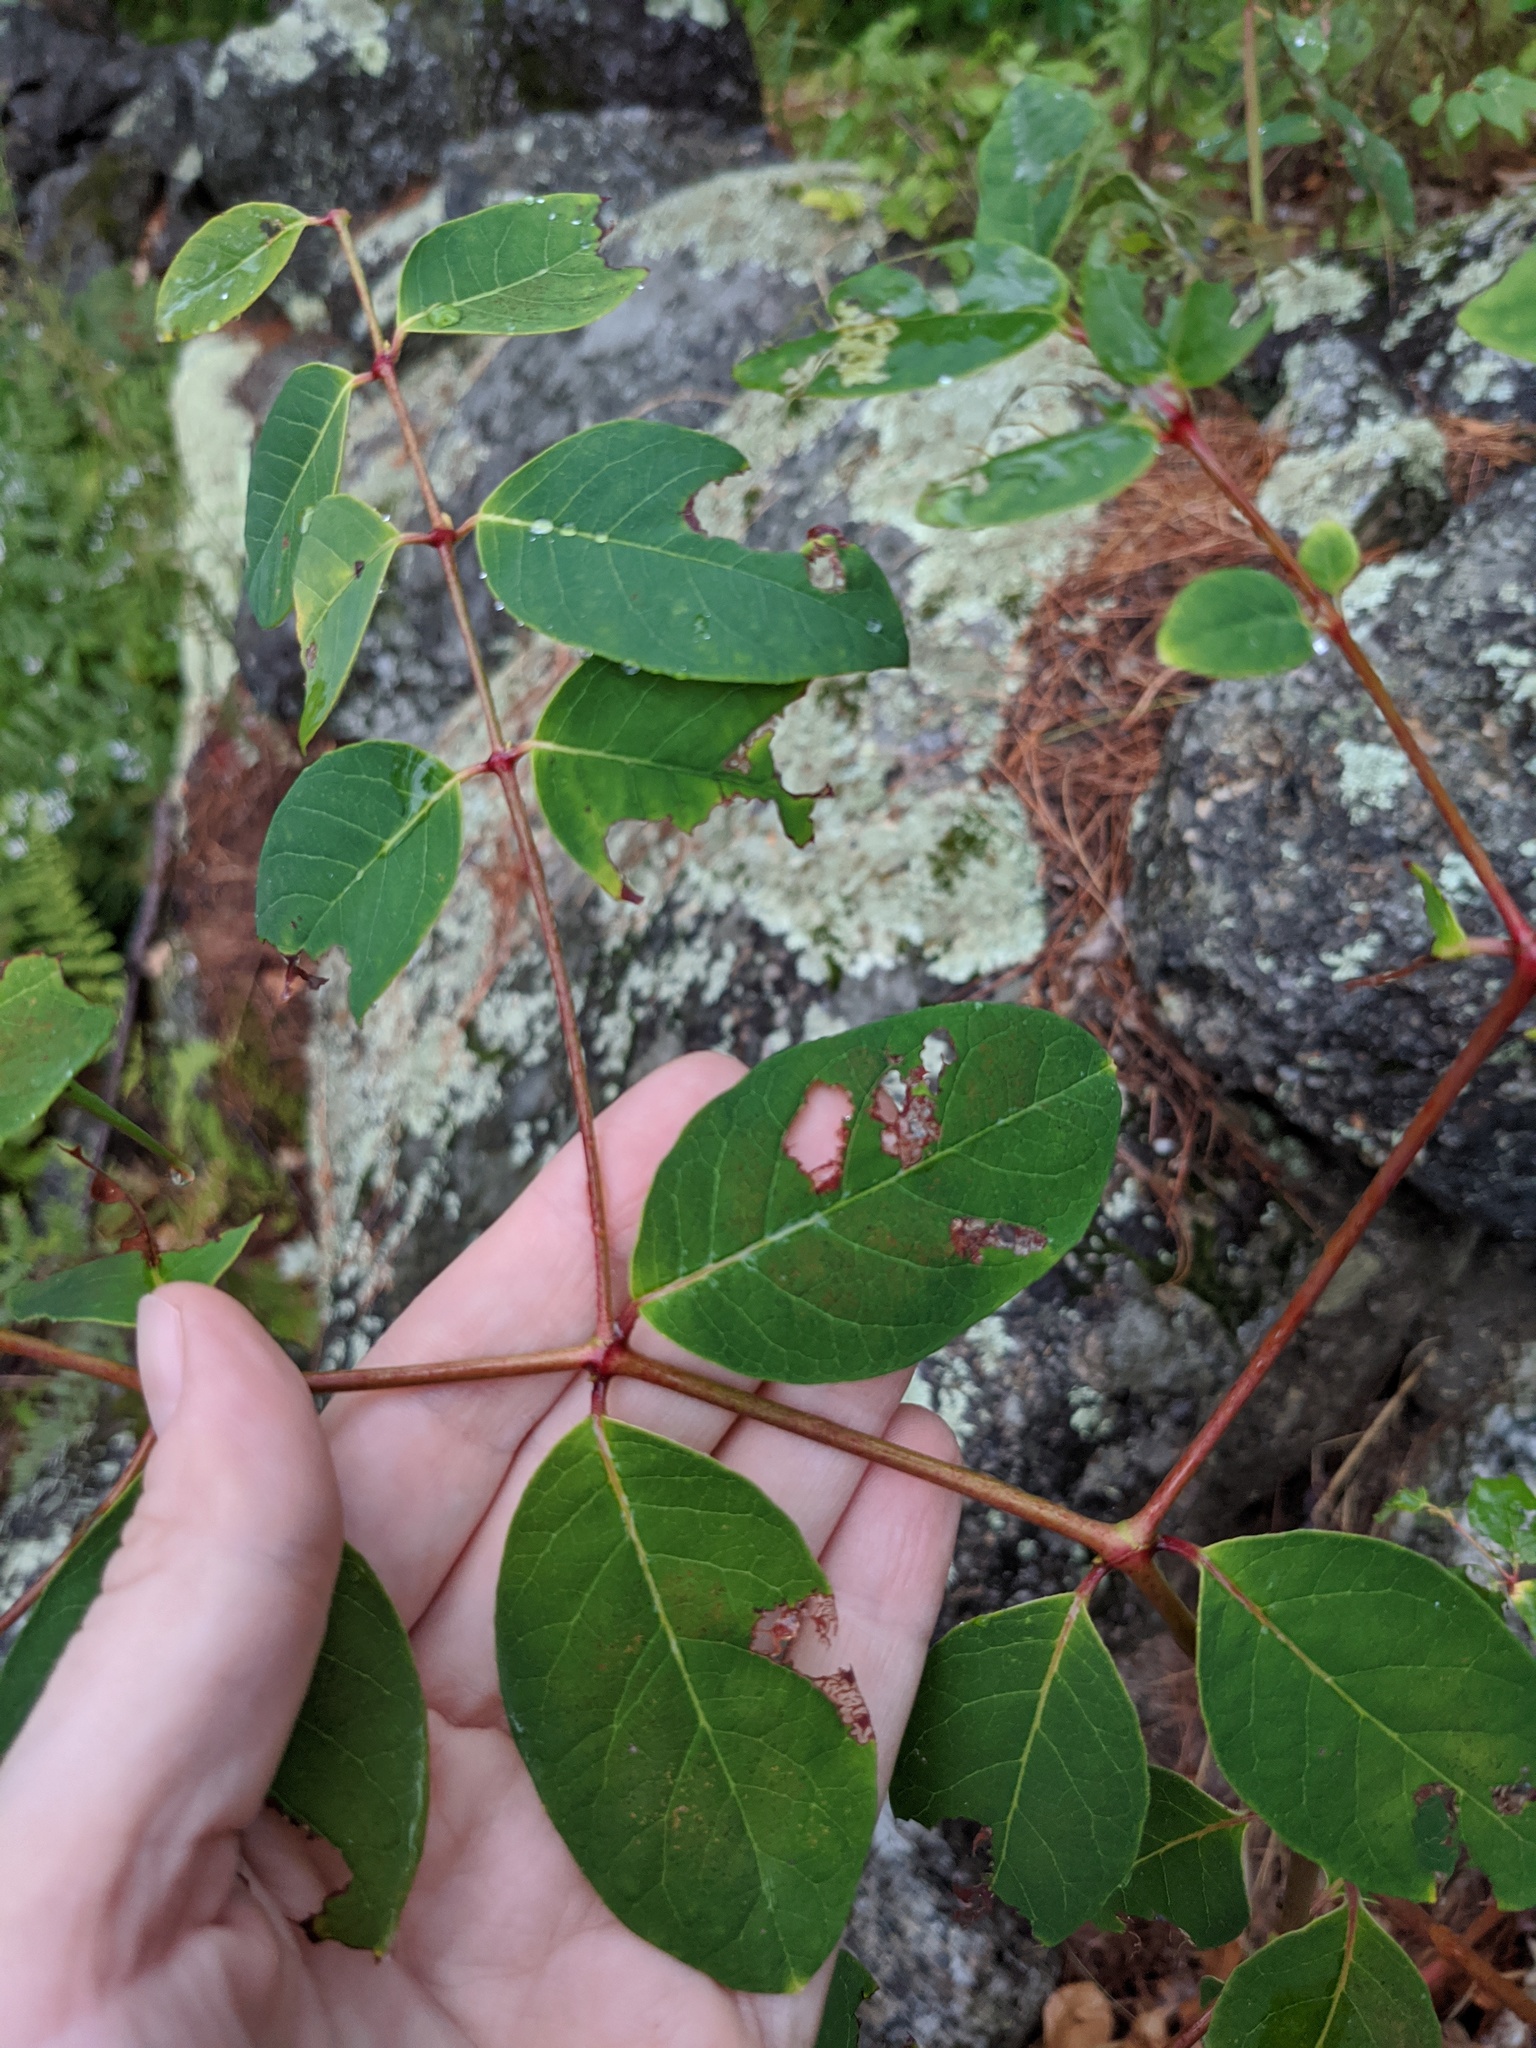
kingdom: Plantae
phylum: Tracheophyta
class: Magnoliopsida
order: Gentianales
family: Apocynaceae
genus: Apocynum
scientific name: Apocynum androsaemifolium
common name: Spreading dogbane
